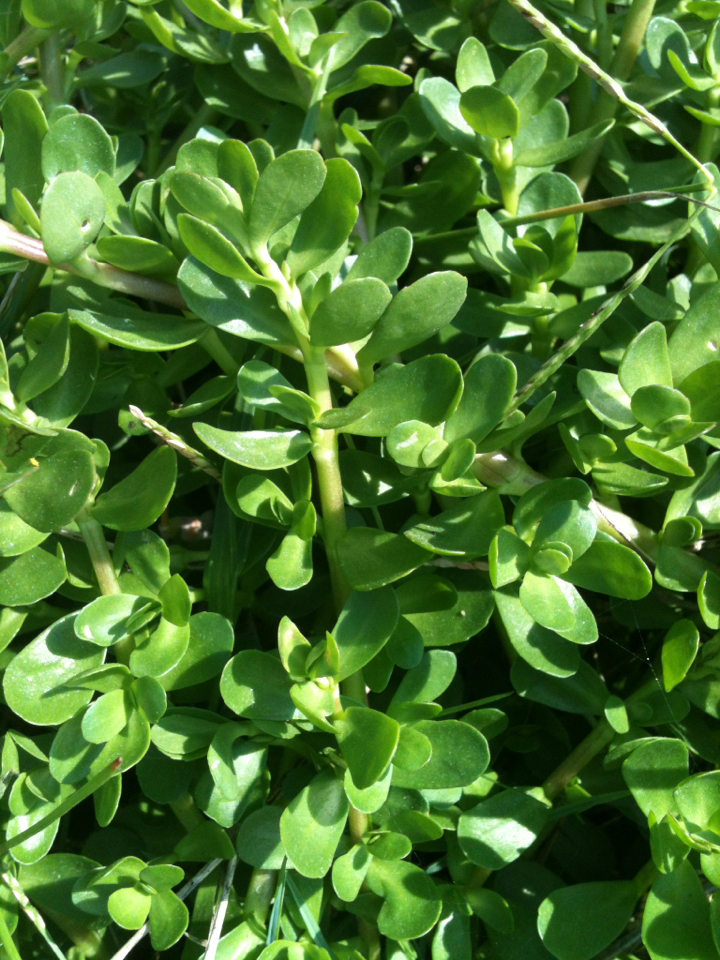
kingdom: Plantae
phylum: Tracheophyta
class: Magnoliopsida
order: Lamiales
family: Plantaginaceae
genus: Bacopa
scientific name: Bacopa monnieri
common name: Indian-pennywort
